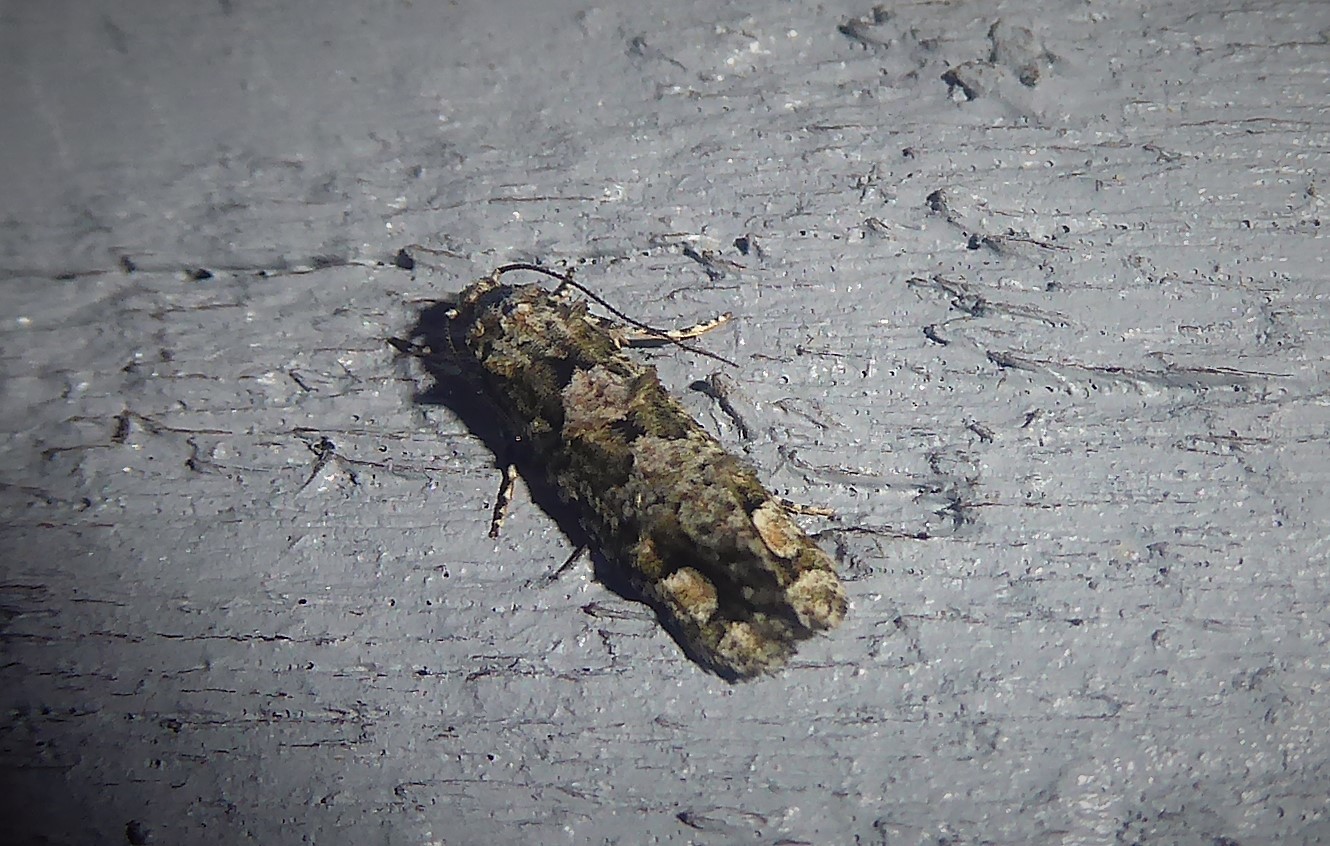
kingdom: Animalia
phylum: Arthropoda
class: Insecta
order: Lepidoptera
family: Tineidae
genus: Lysiphragma
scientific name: Lysiphragma howesii
